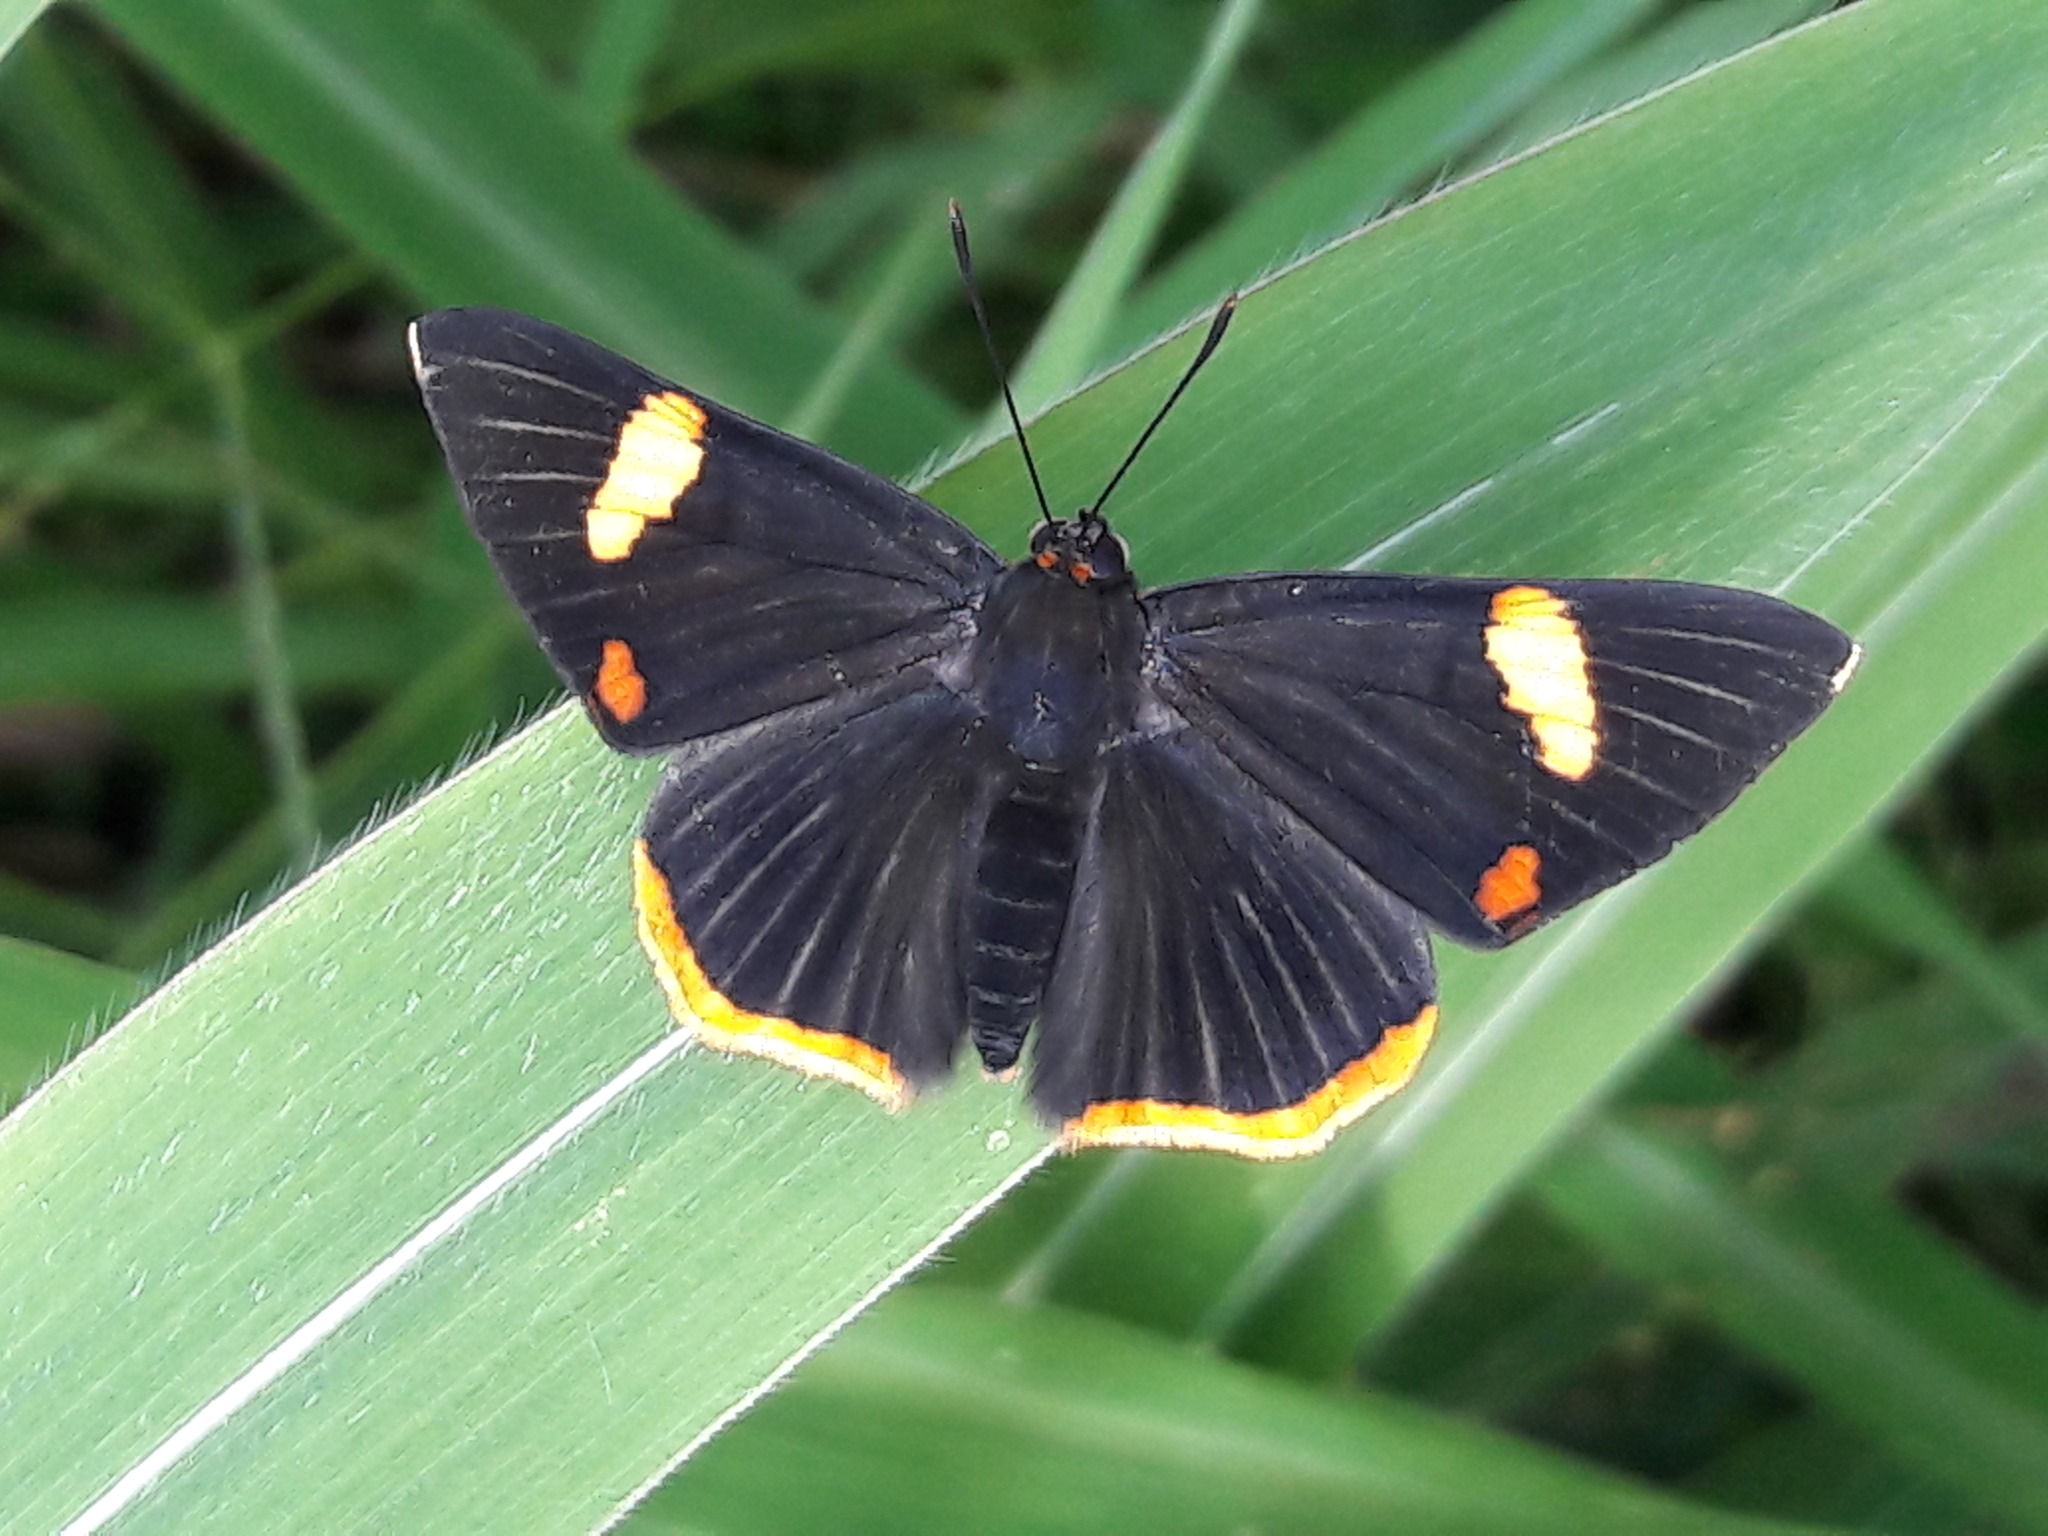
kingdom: Animalia
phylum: Arthropoda
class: Insecta
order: Lepidoptera
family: Riodinidae
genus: Riodina
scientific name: Riodina lycisca
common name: Lycisca metalmark
